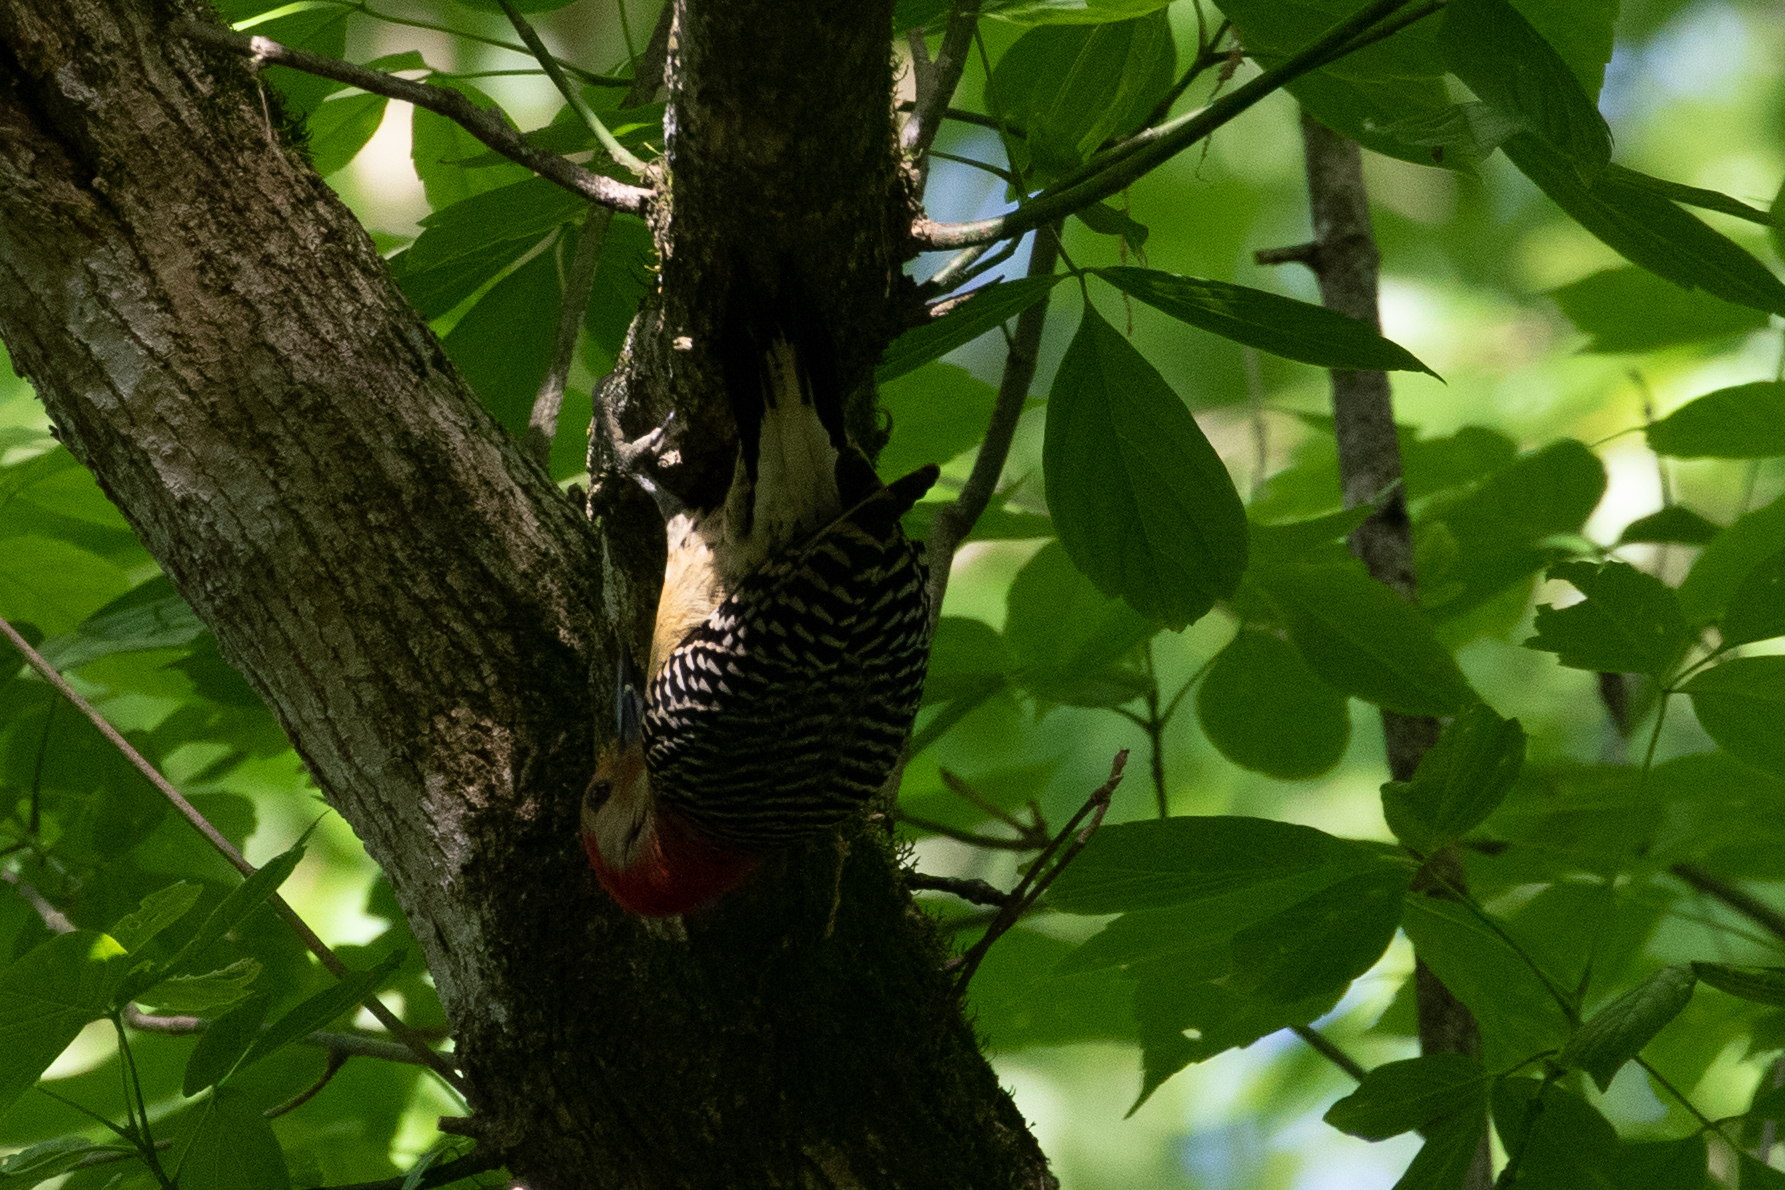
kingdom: Animalia
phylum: Chordata
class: Aves
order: Piciformes
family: Picidae
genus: Melanerpes
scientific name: Melanerpes carolinus
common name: Red-bellied woodpecker
